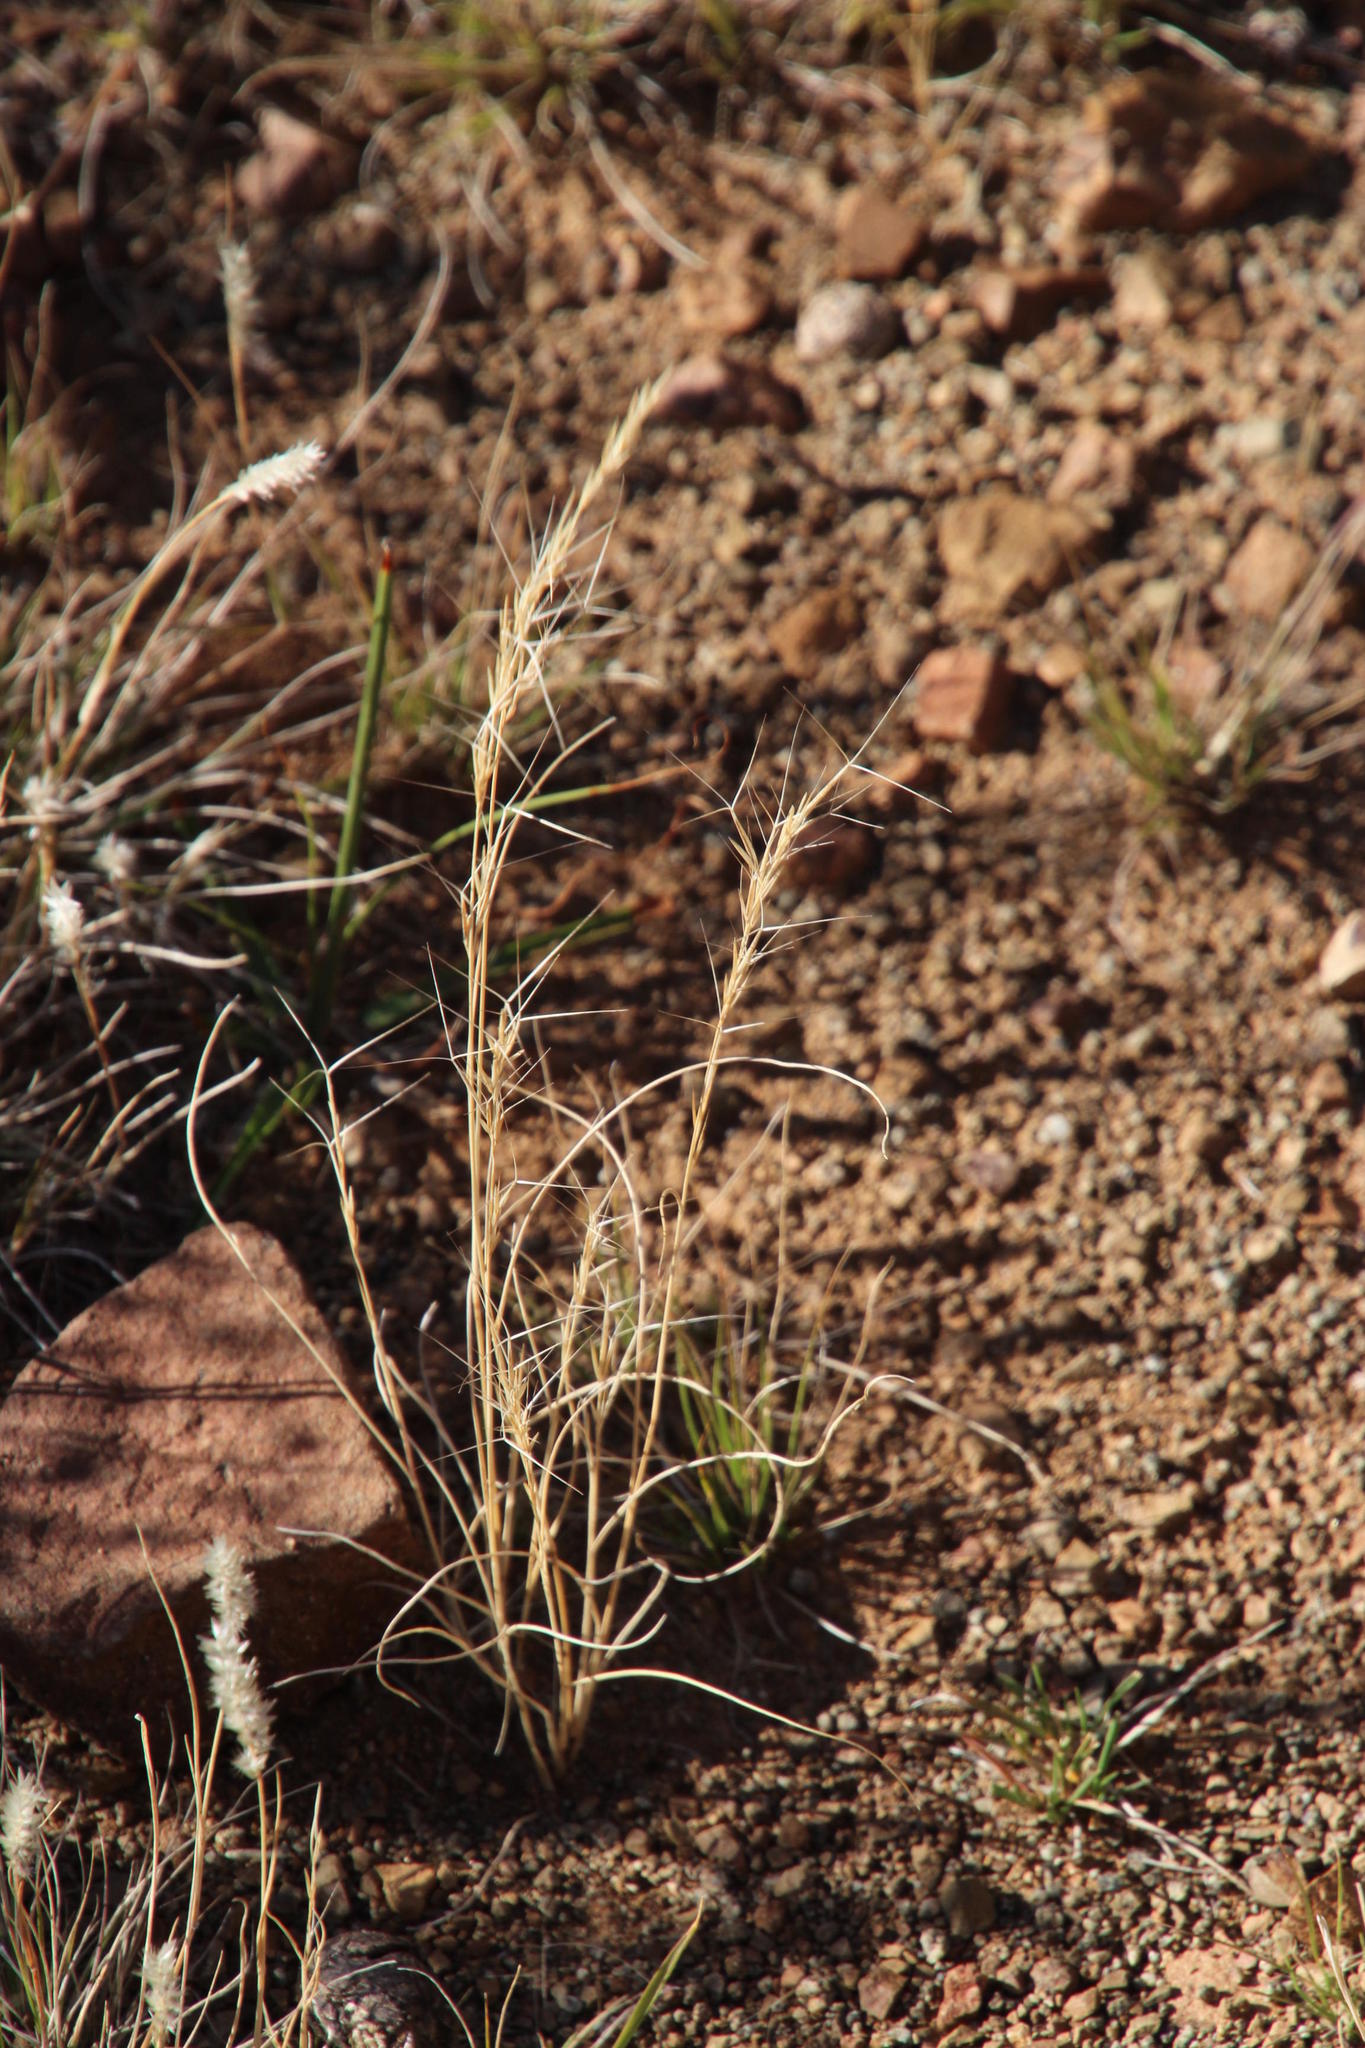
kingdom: Plantae
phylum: Tracheophyta
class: Liliopsida
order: Poales
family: Poaceae
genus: Aristida
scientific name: Aristida adscensionis
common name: Sixweeks threeawn
